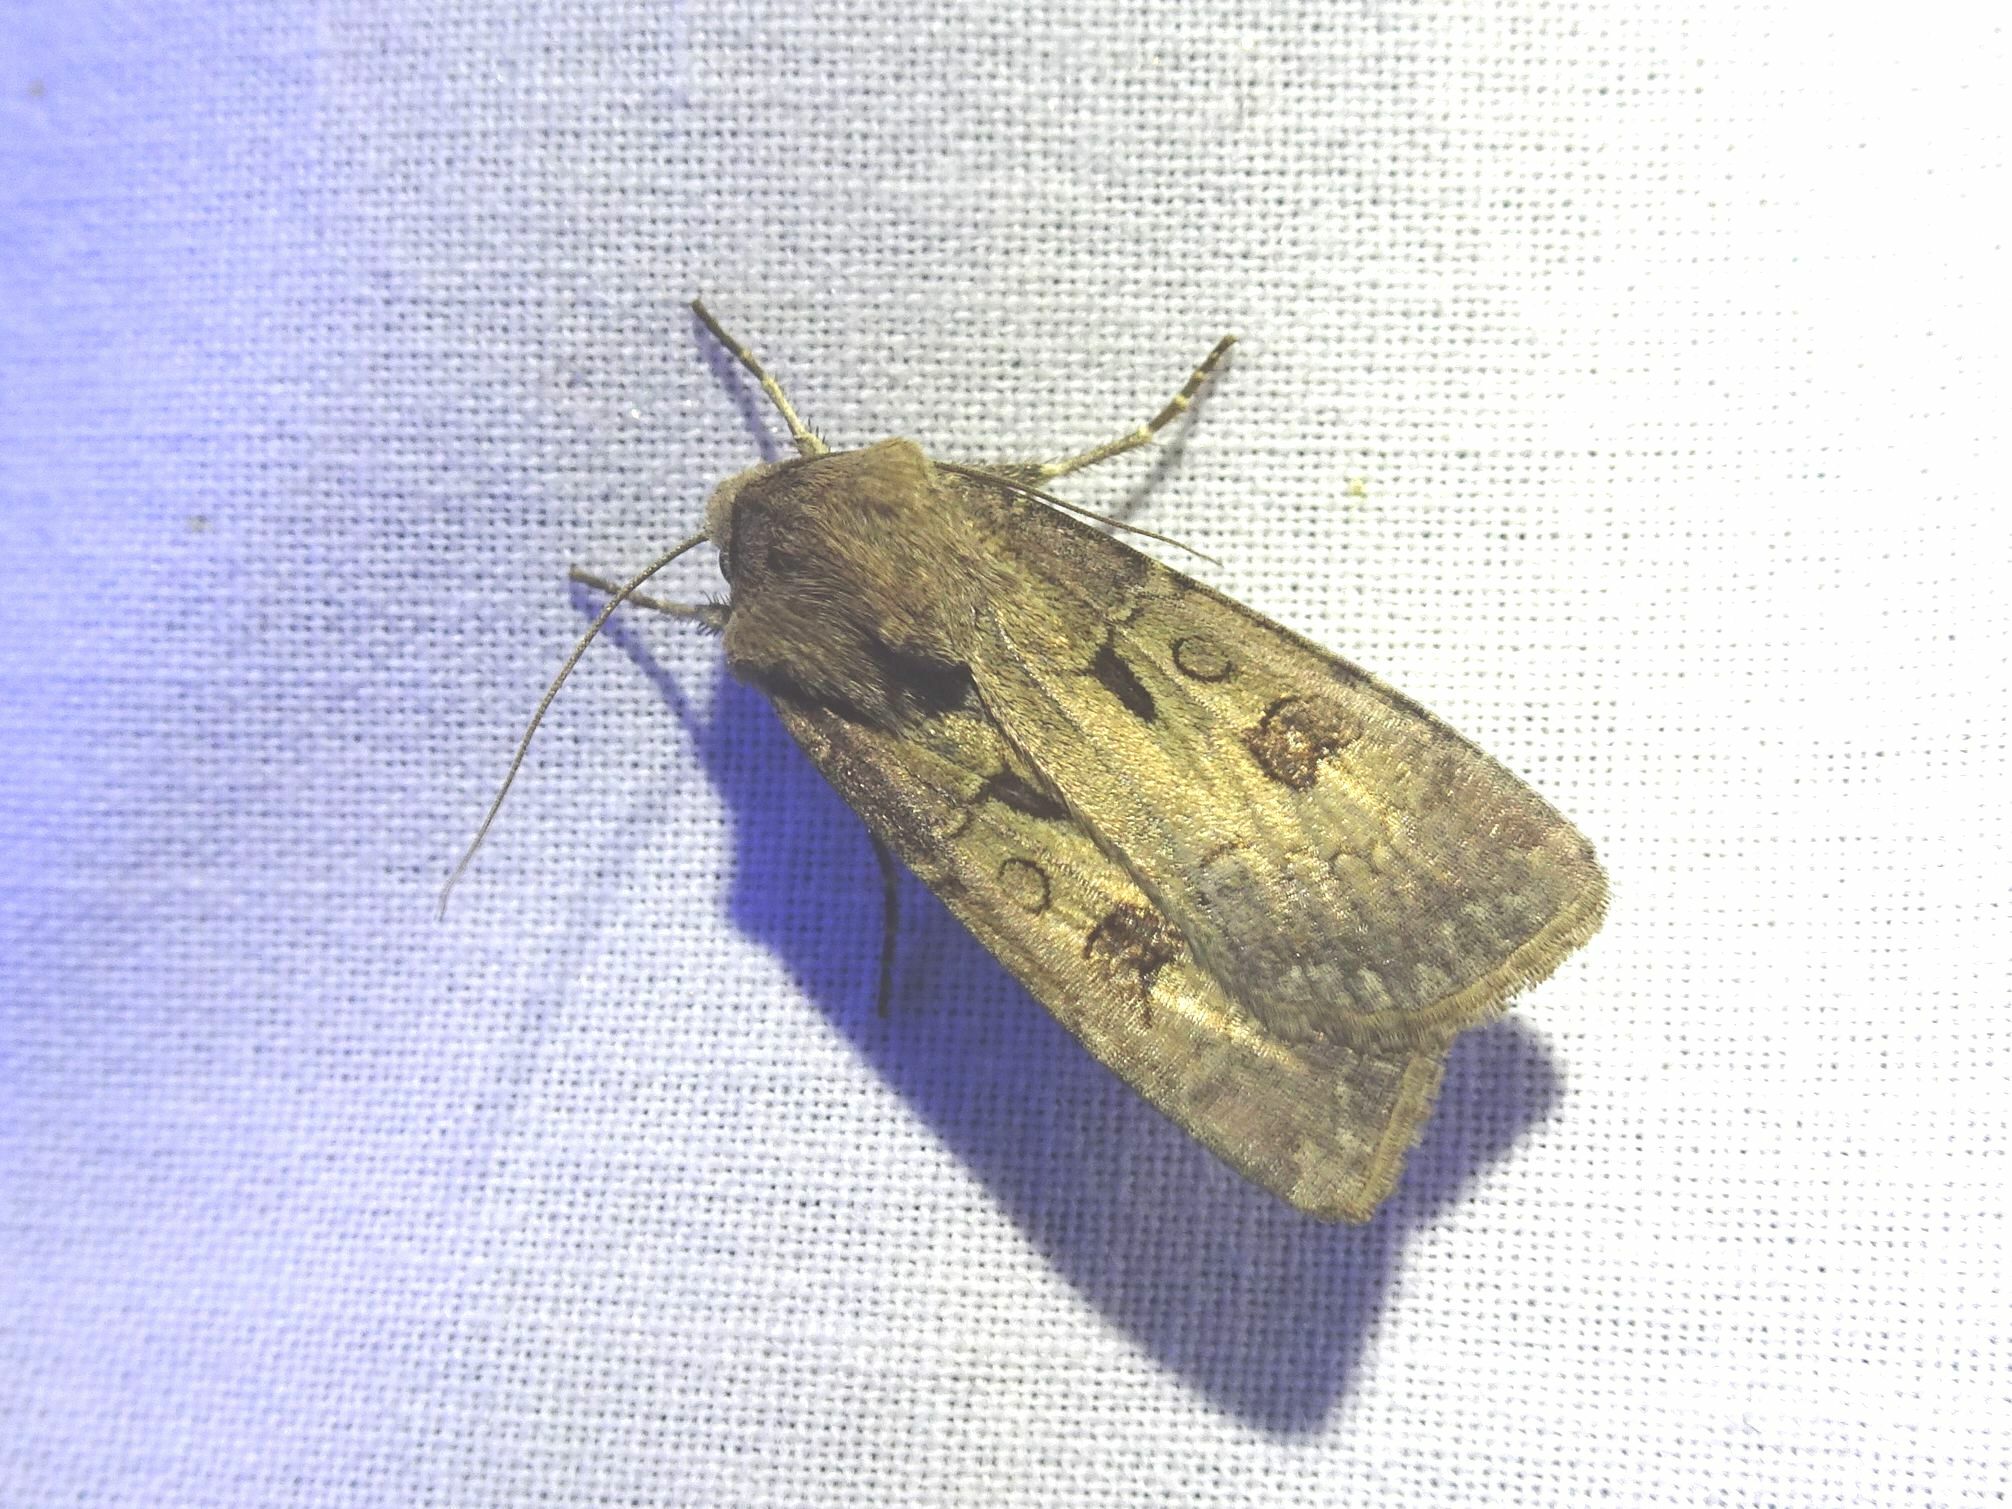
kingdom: Animalia
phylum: Arthropoda
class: Insecta
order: Lepidoptera
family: Noctuidae
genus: Agrotis
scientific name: Agrotis exclamationis
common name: Heart and dart
